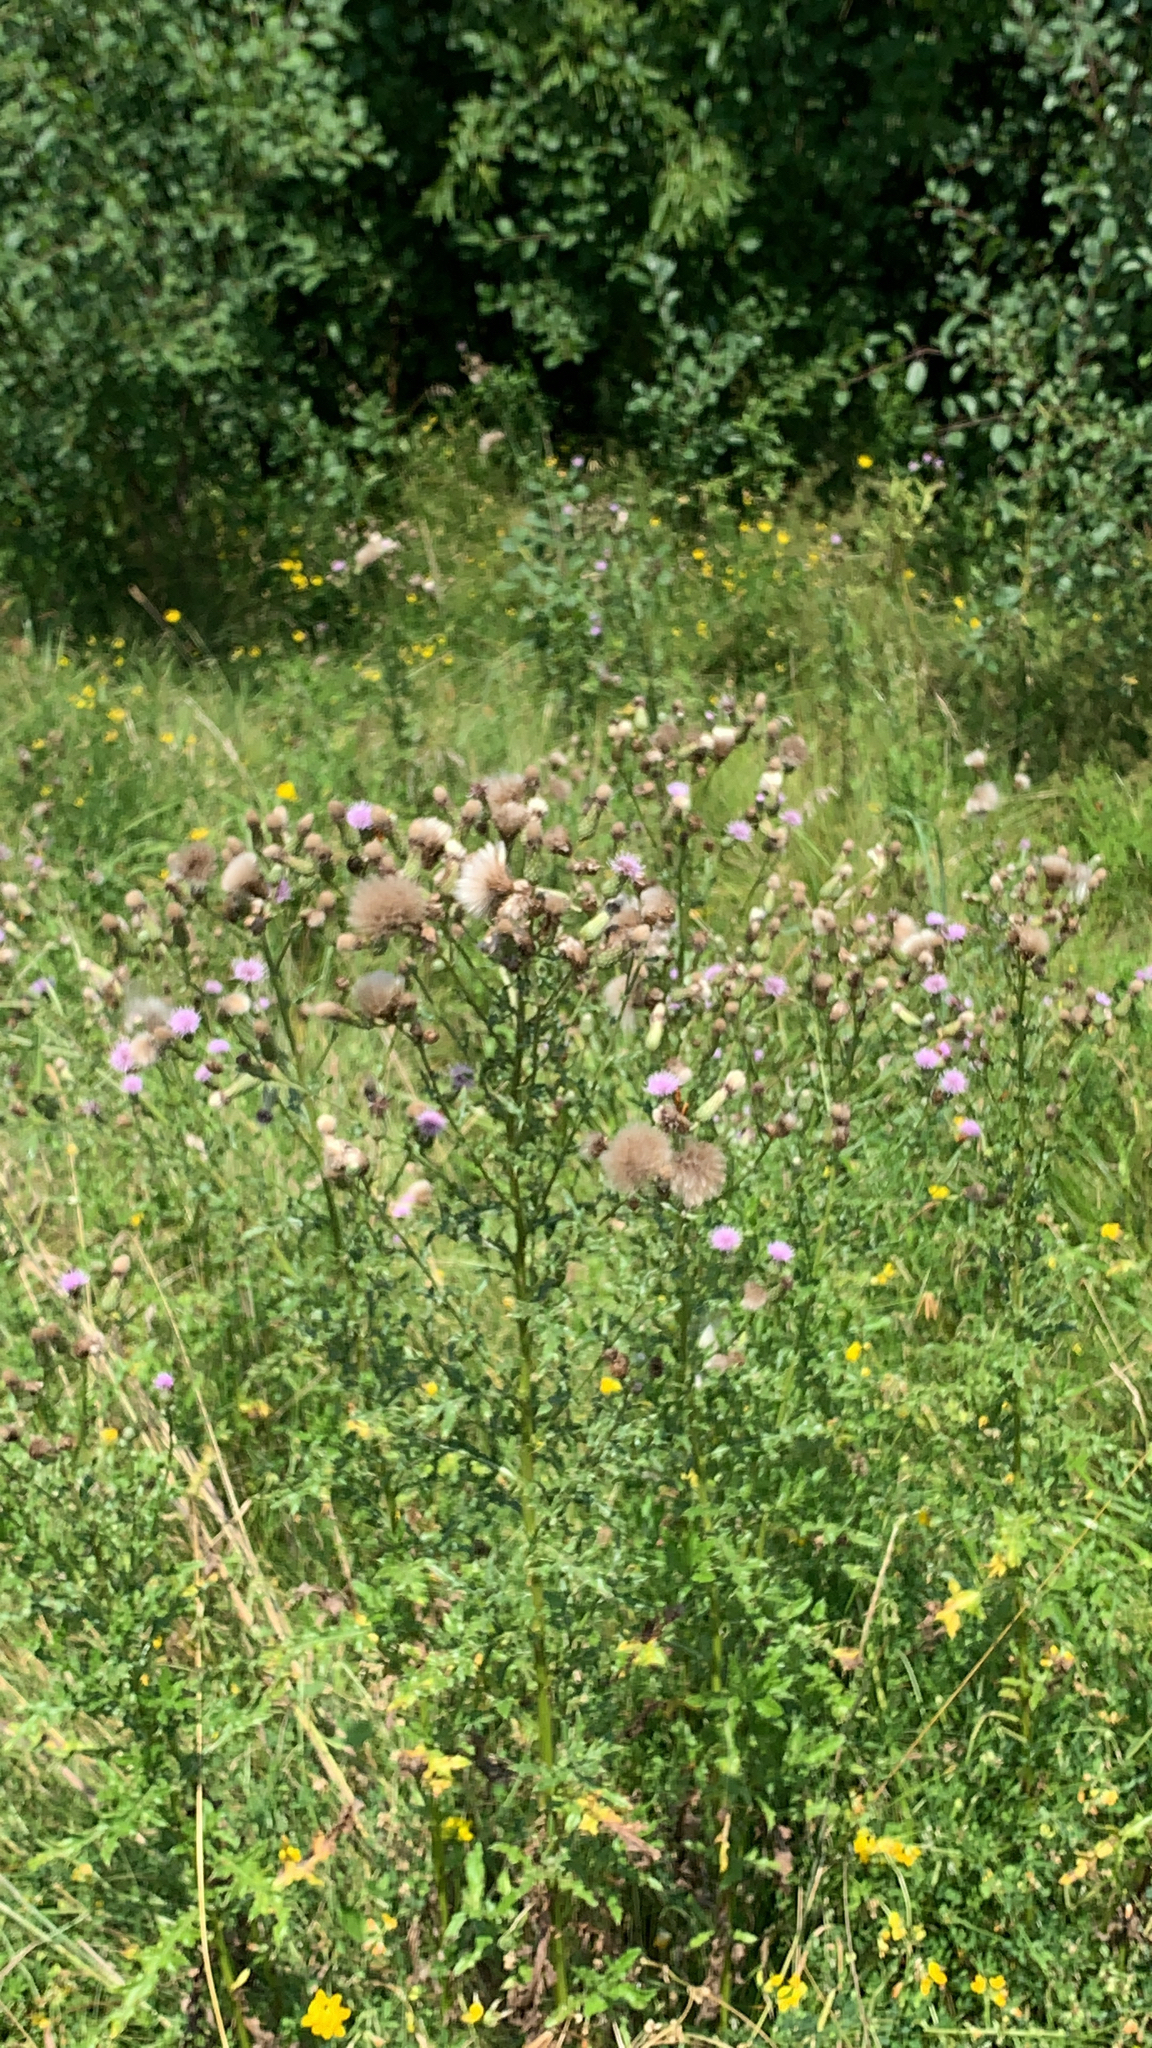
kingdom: Plantae
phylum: Tracheophyta
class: Magnoliopsida
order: Asterales
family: Asteraceae
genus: Cirsium
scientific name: Cirsium arvense
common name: Creeping thistle
